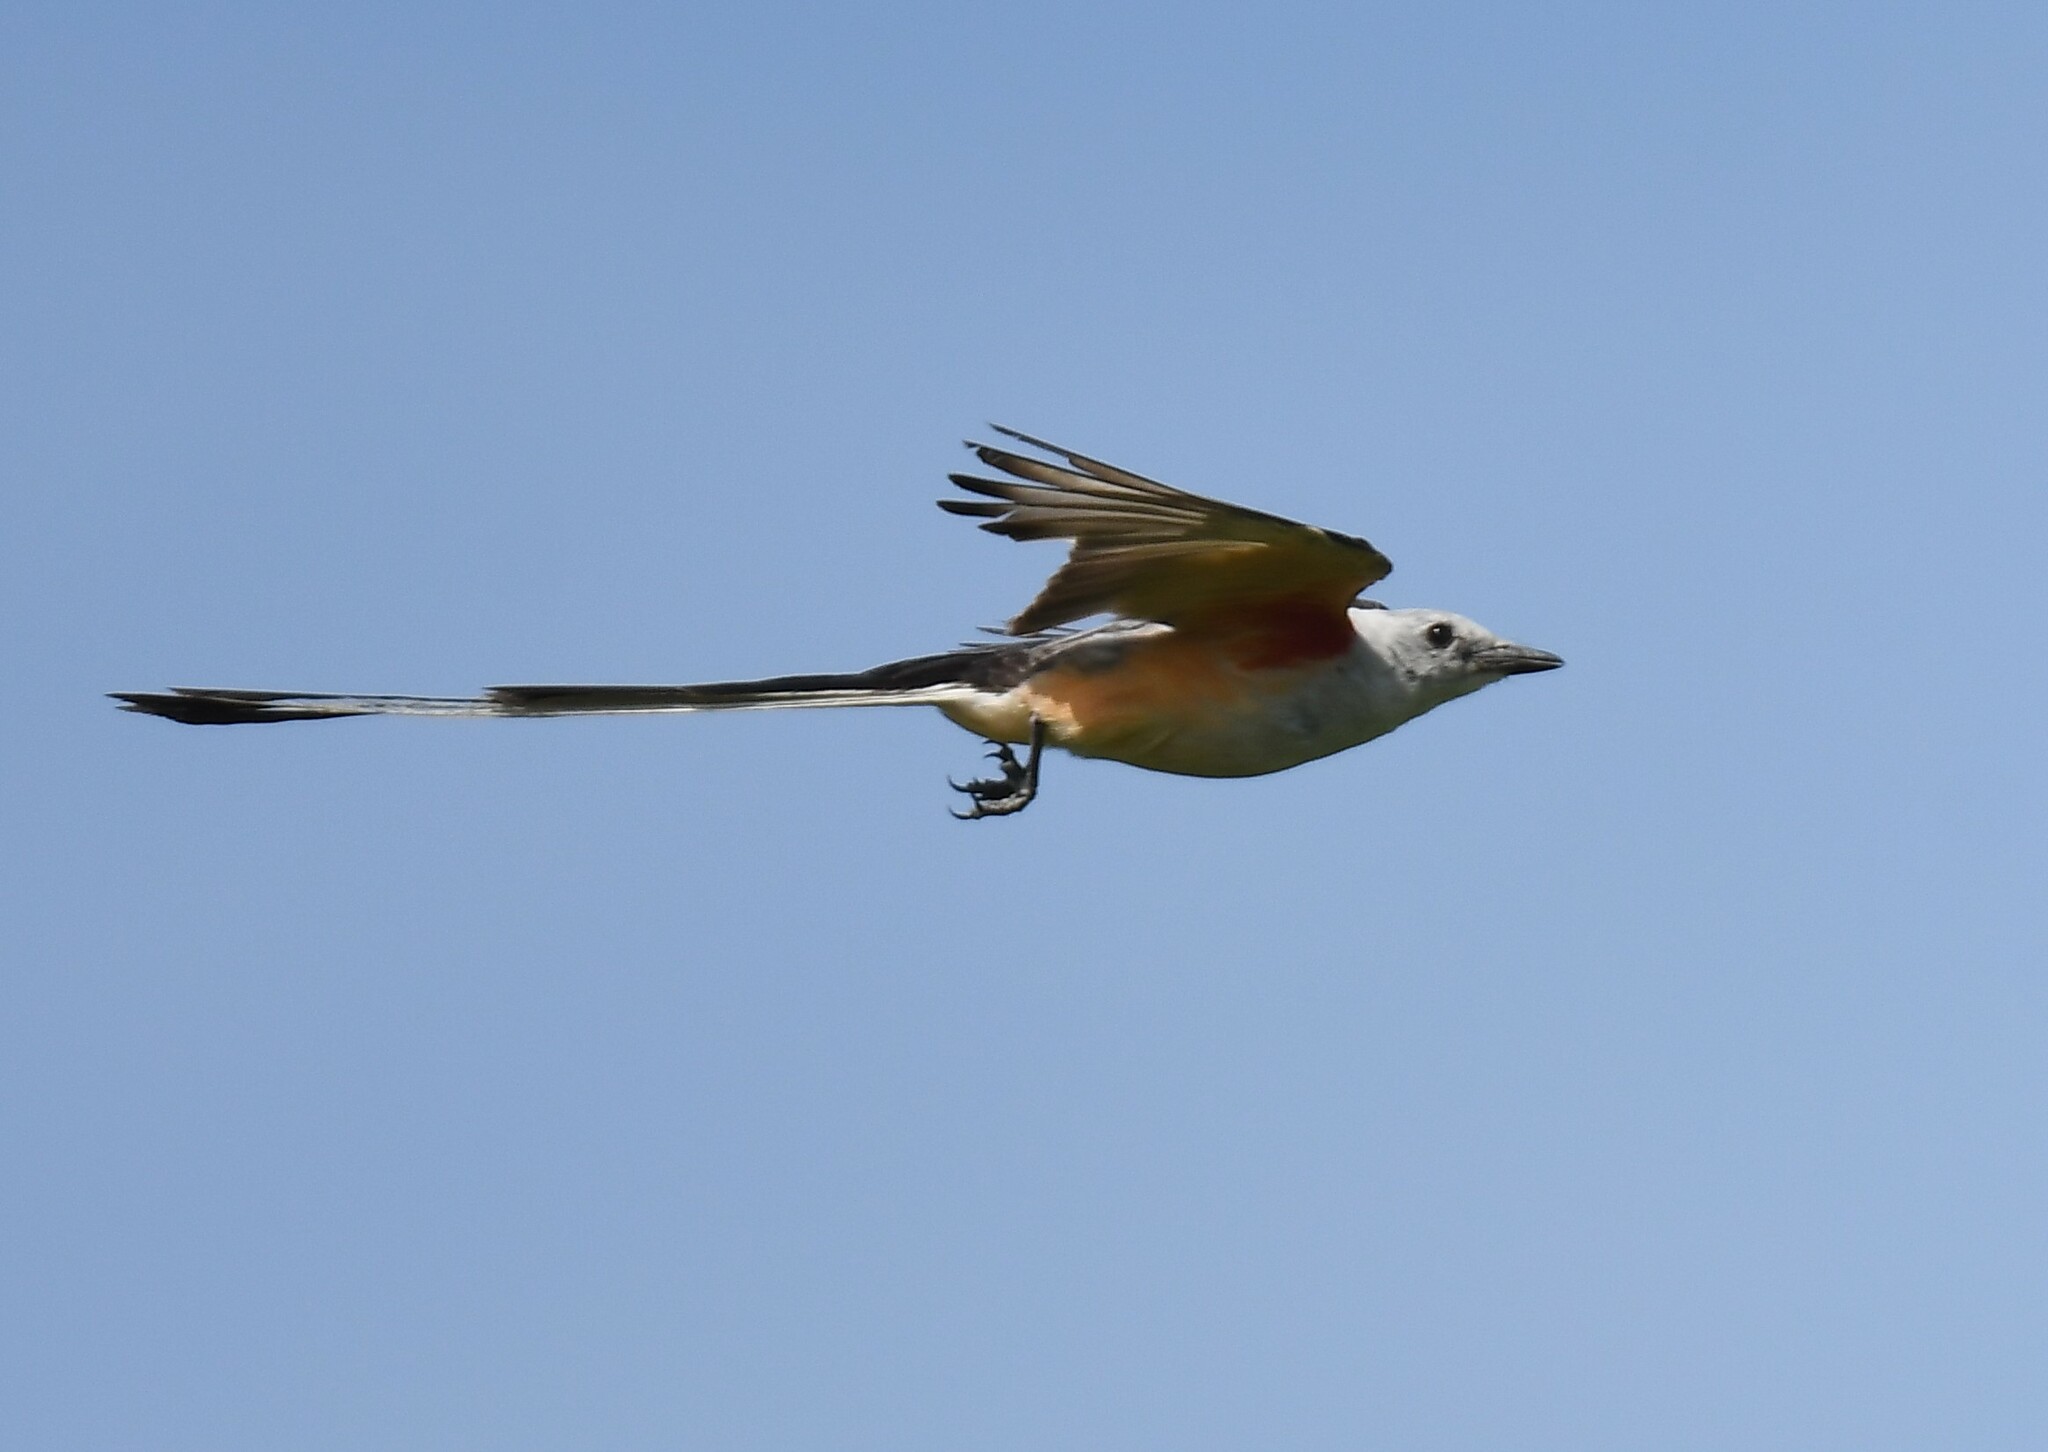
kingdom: Animalia
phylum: Chordata
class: Aves
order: Passeriformes
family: Tyrannidae
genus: Tyrannus
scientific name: Tyrannus forficatus
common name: Scissor-tailed flycatcher
